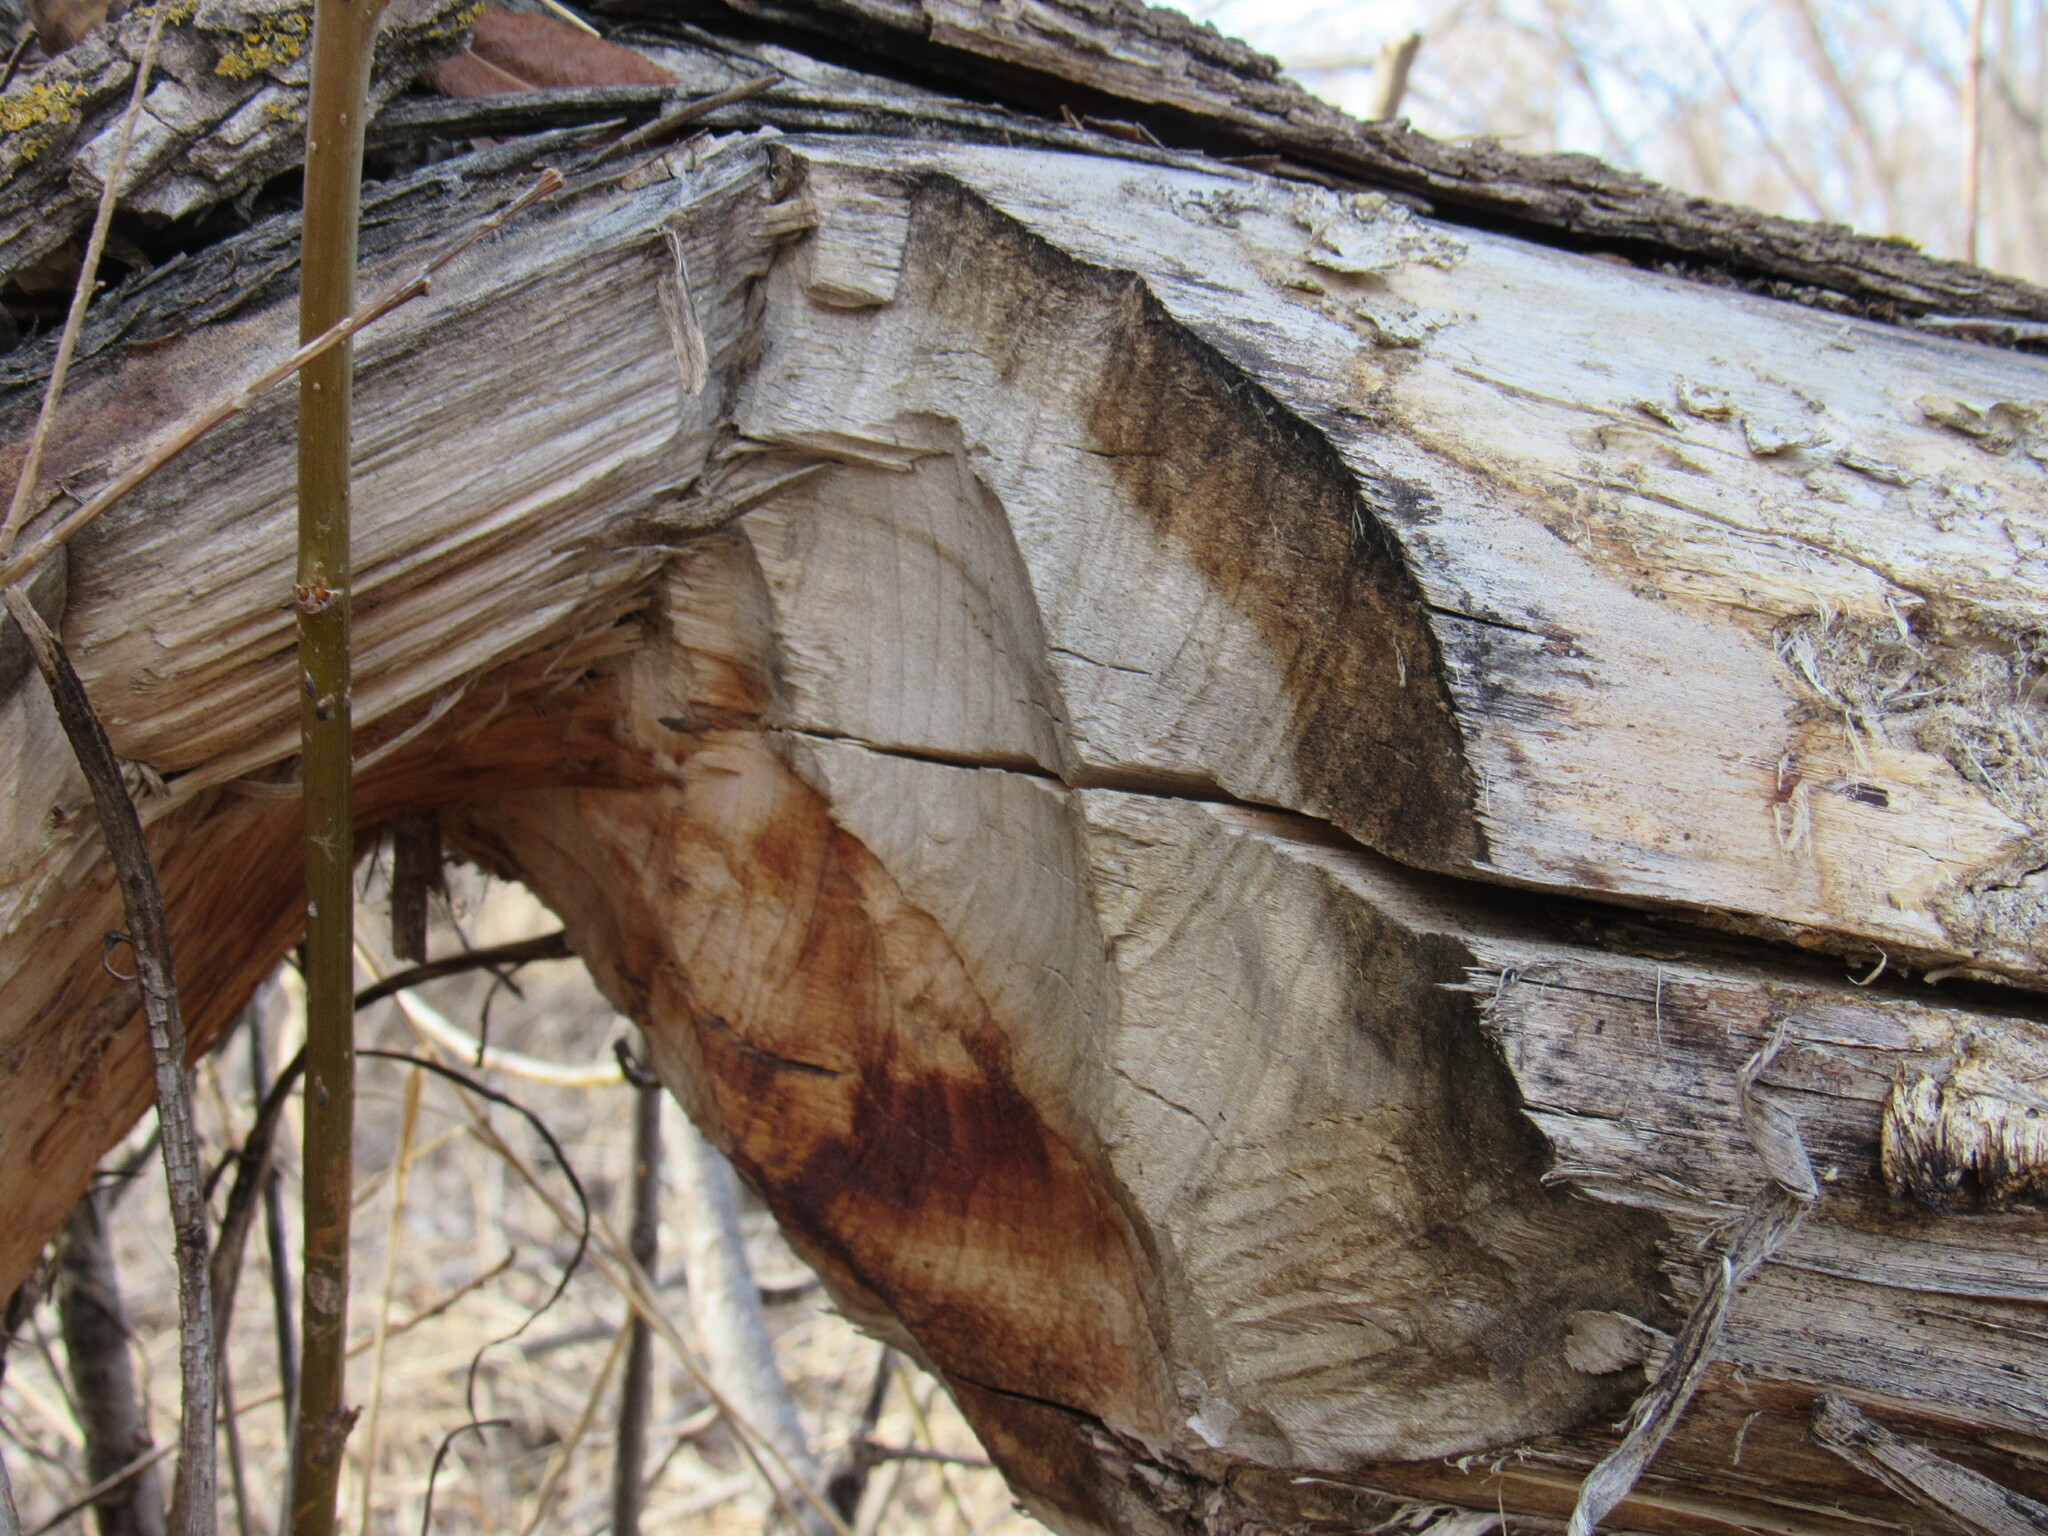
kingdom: Animalia
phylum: Chordata
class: Mammalia
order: Rodentia
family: Castoridae
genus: Castor
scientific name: Castor canadensis
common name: American beaver
